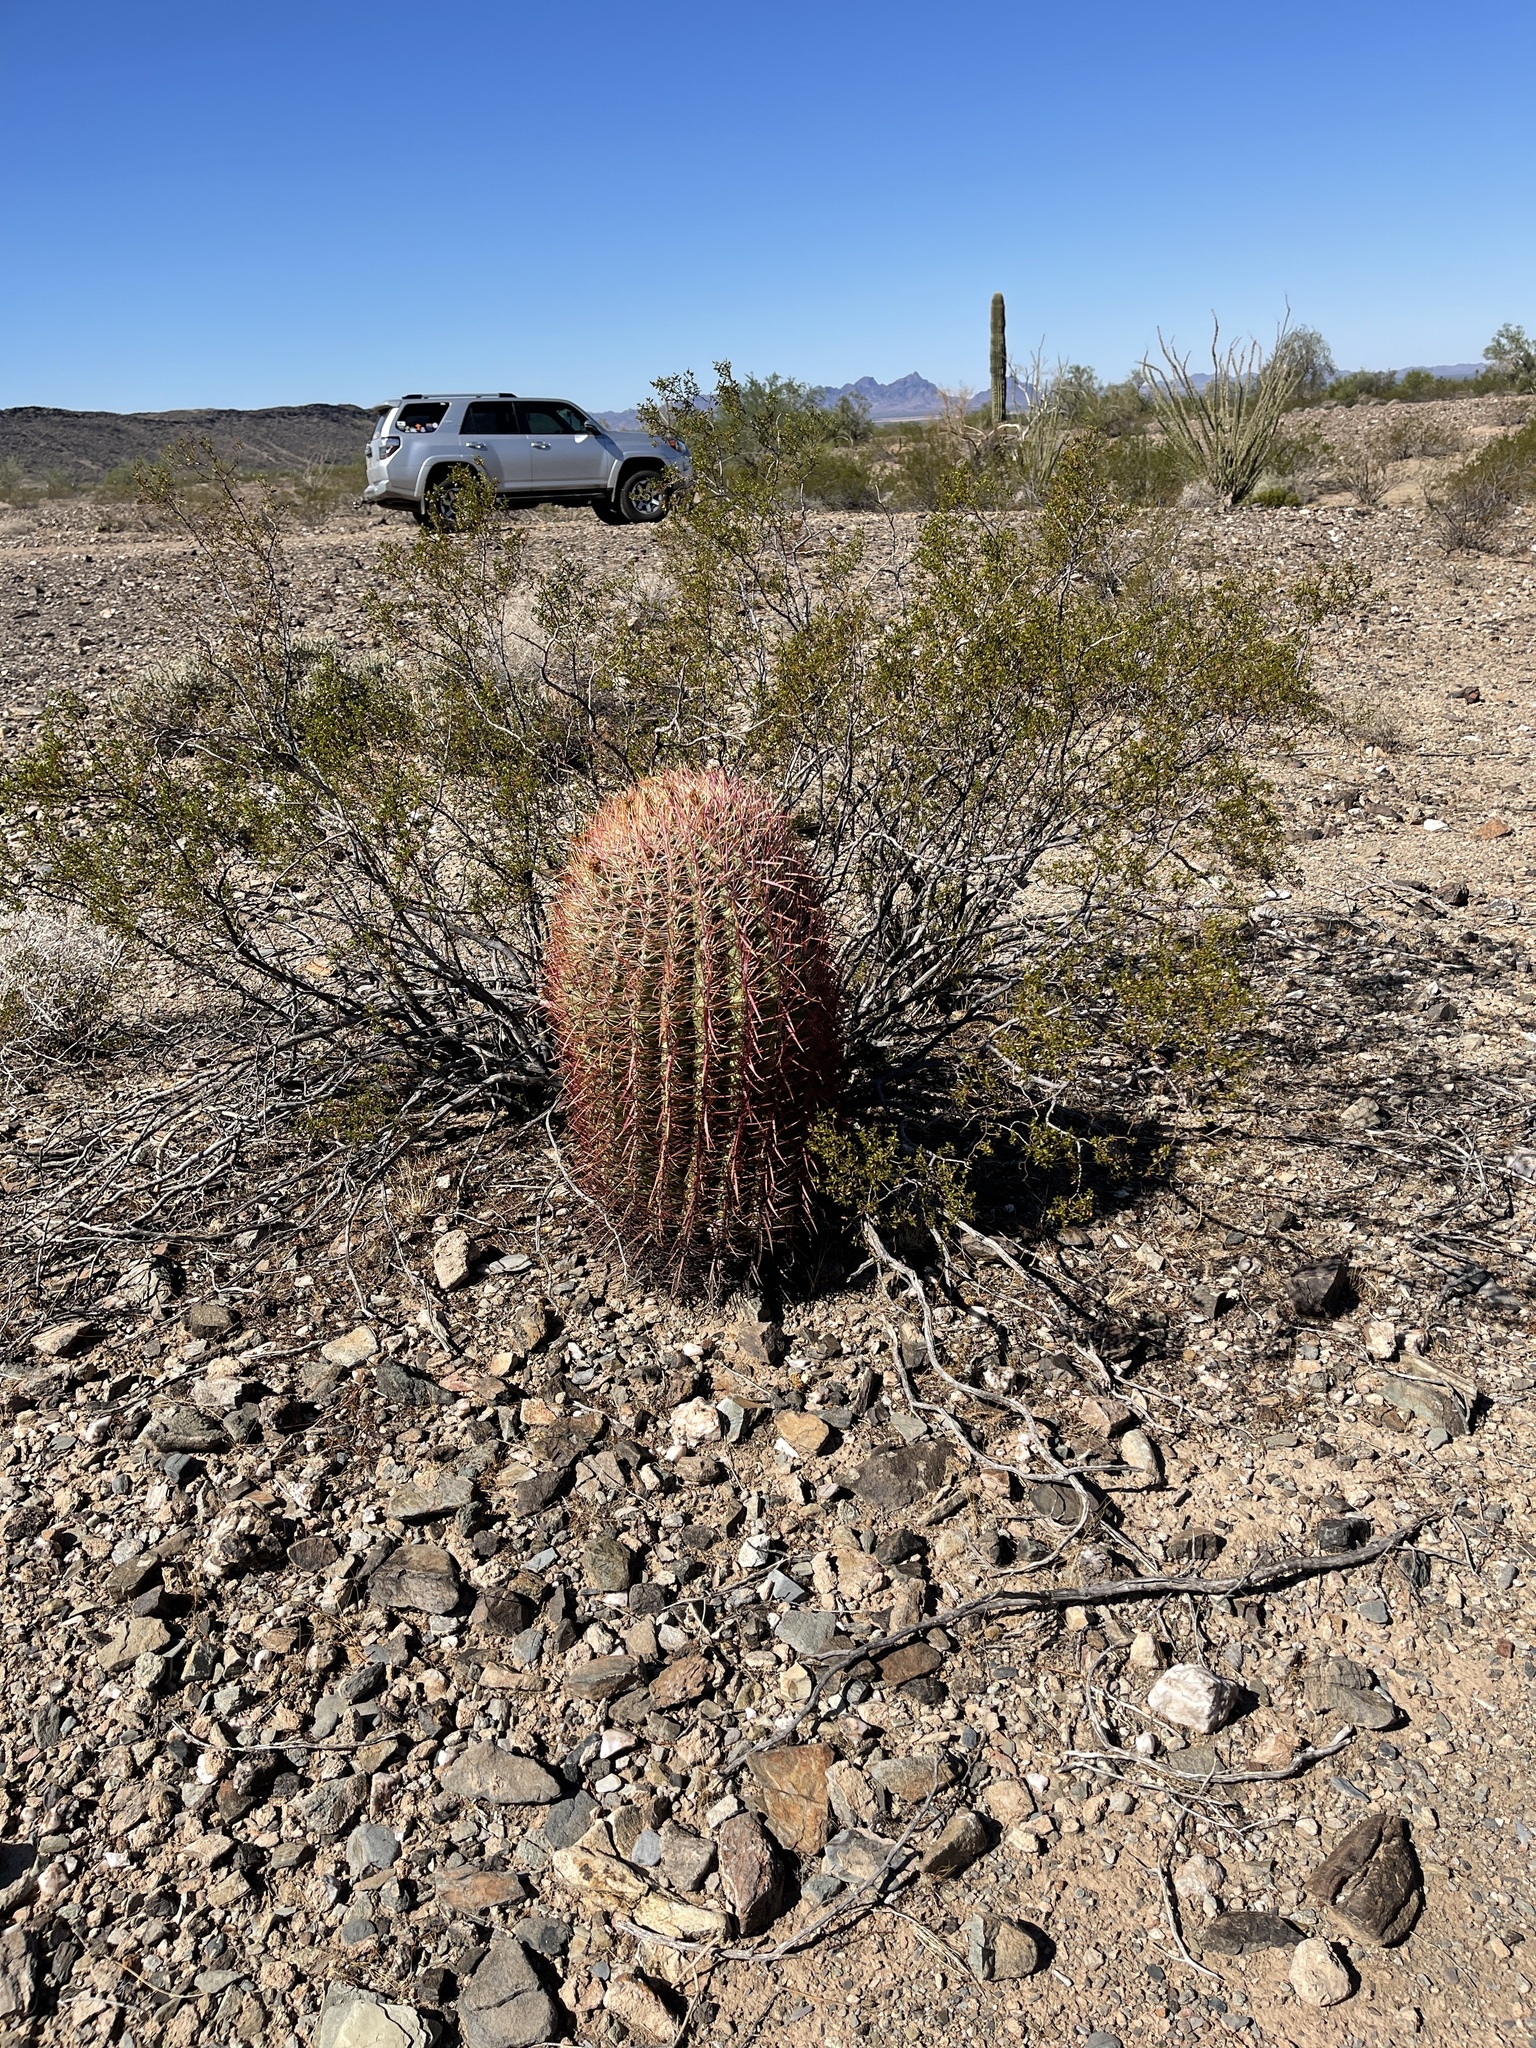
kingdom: Plantae
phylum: Tracheophyta
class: Magnoliopsida
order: Caryophyllales
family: Cactaceae
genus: Ferocactus
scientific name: Ferocactus cylindraceus
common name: California barrel cactus
